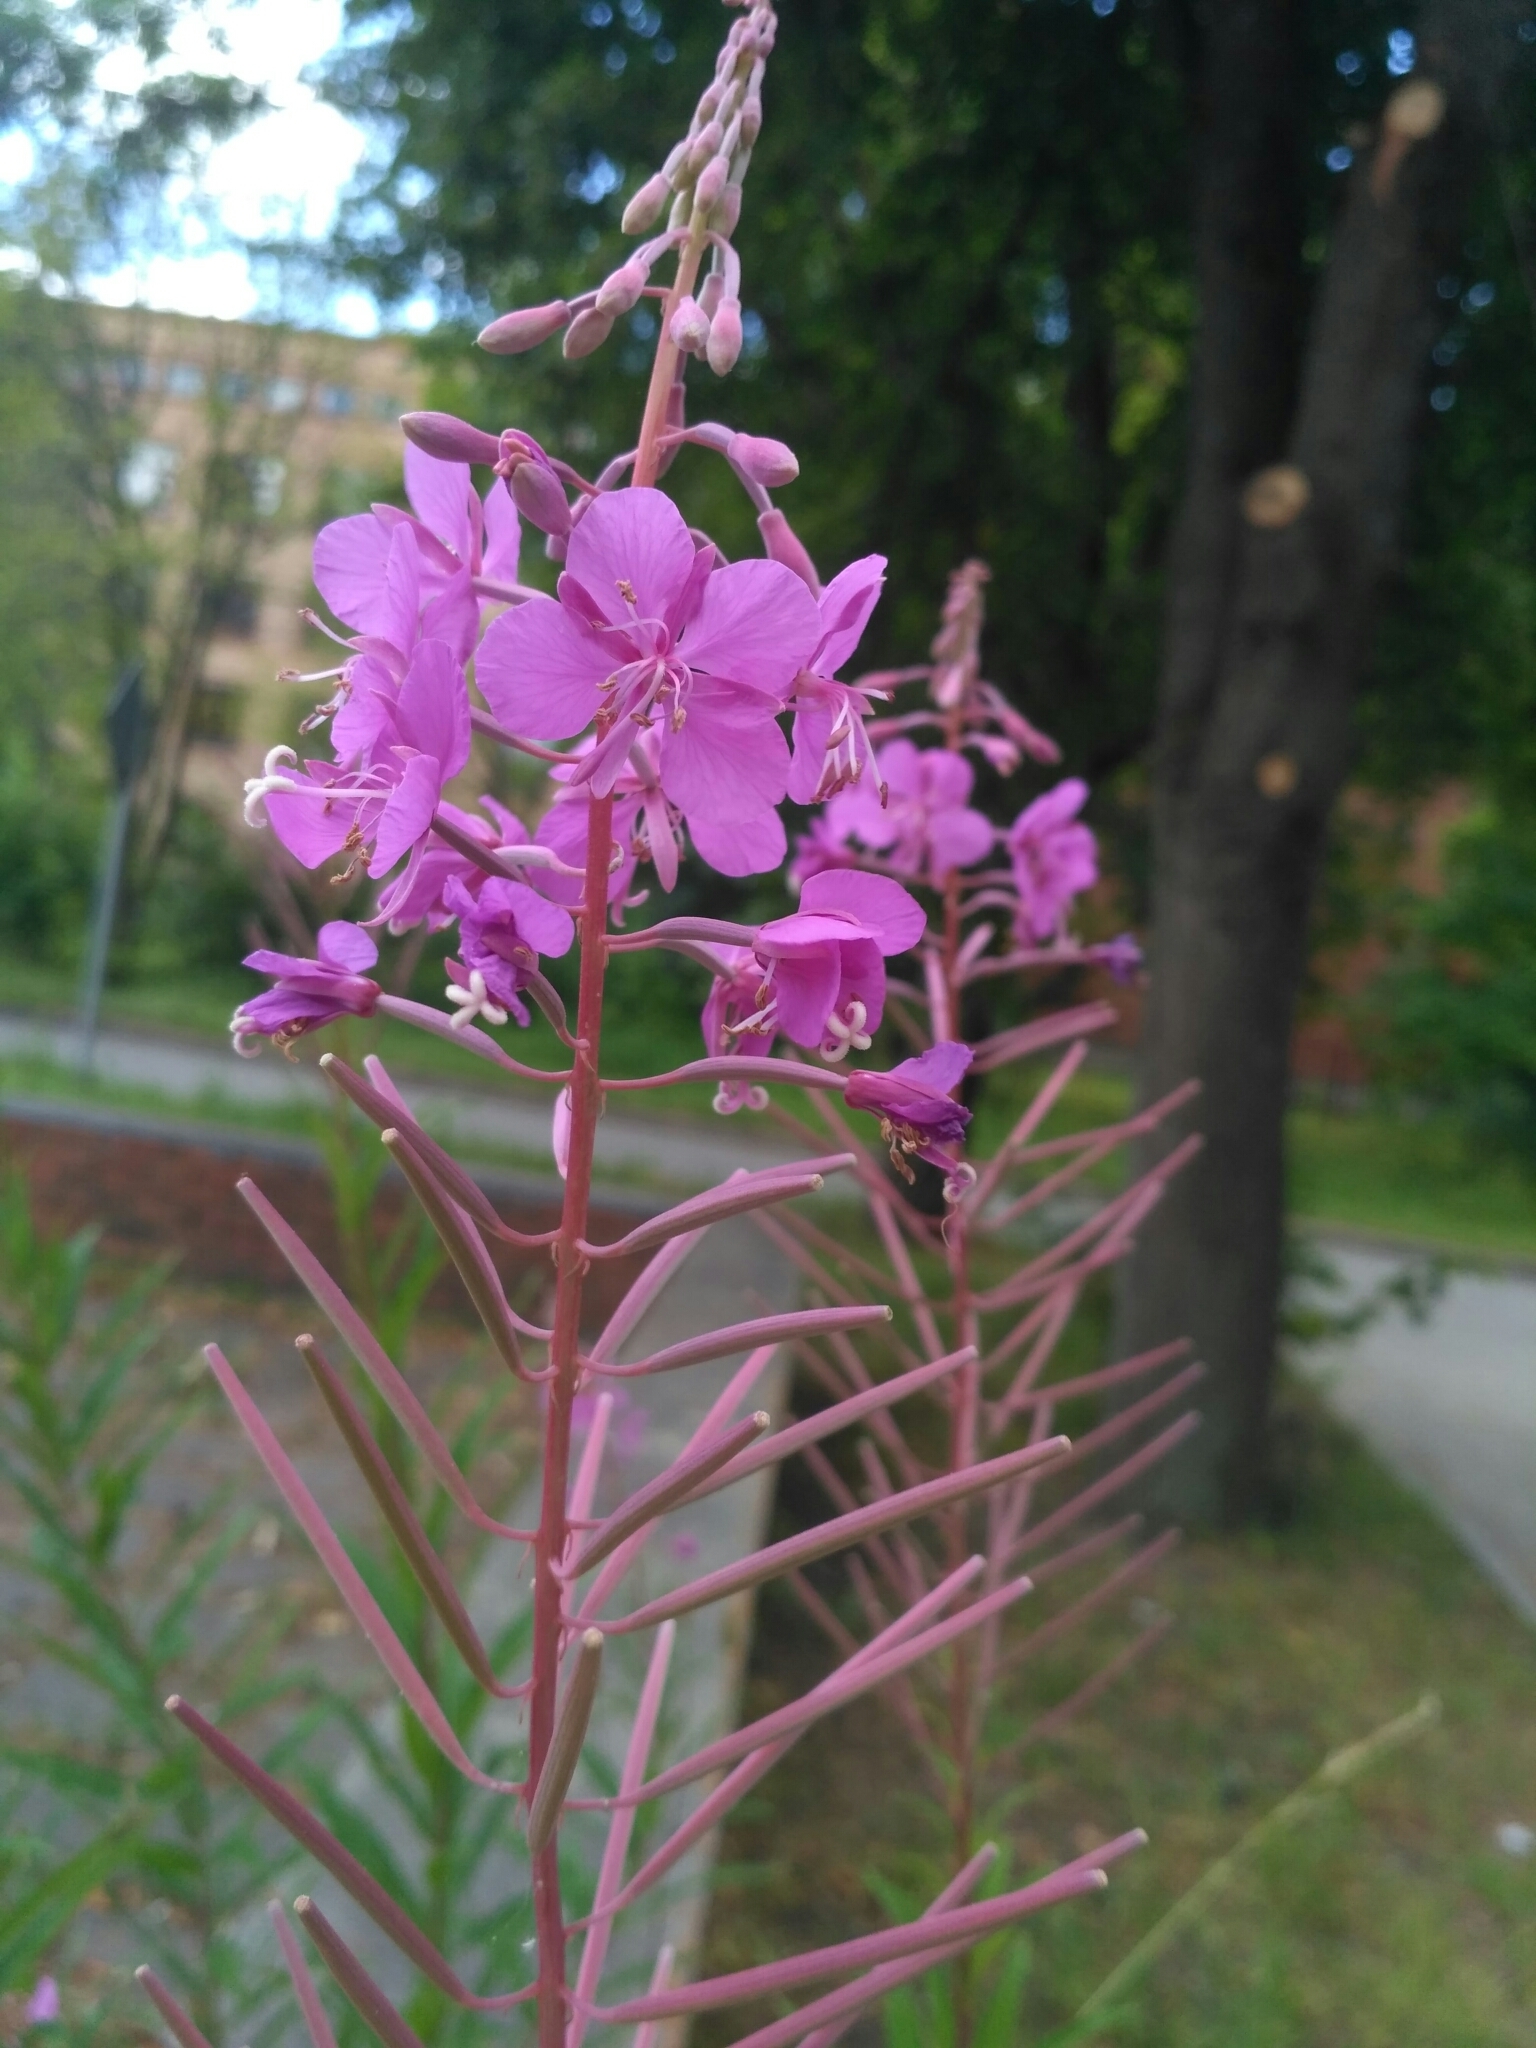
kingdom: Plantae
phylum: Tracheophyta
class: Magnoliopsida
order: Myrtales
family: Onagraceae
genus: Chamaenerion
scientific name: Chamaenerion angustifolium
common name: Fireweed
